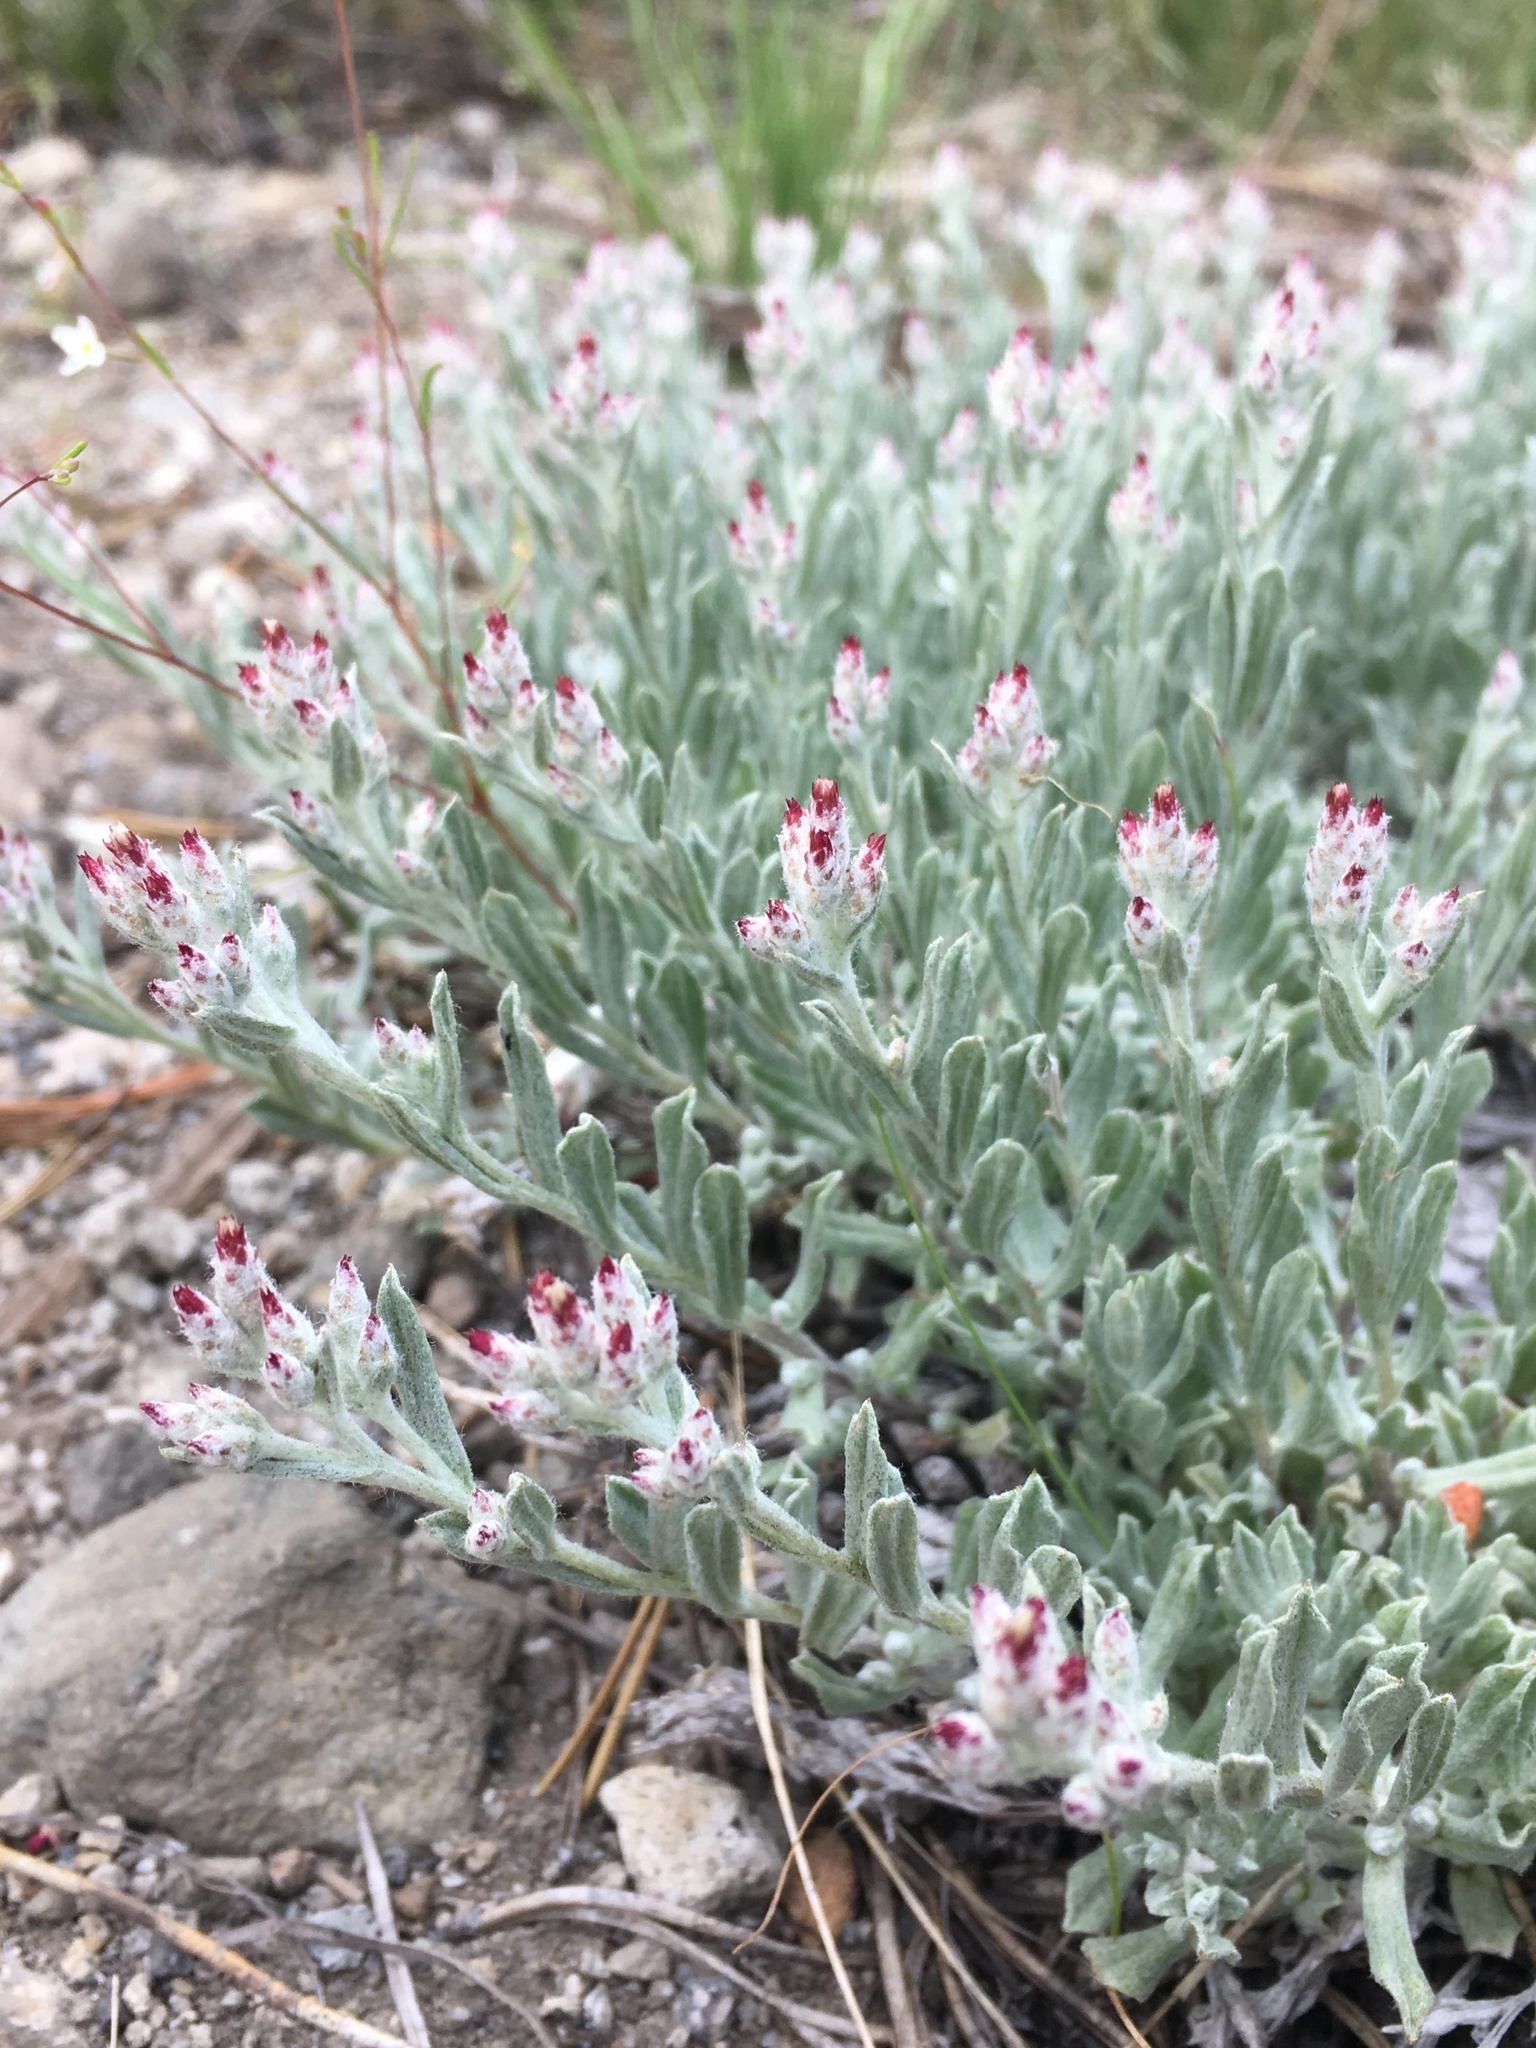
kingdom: Plantae
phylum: Tracheophyta
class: Magnoliopsida
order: Asterales
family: Asteraceae
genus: Antennaria
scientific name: Antennaria geyeri
